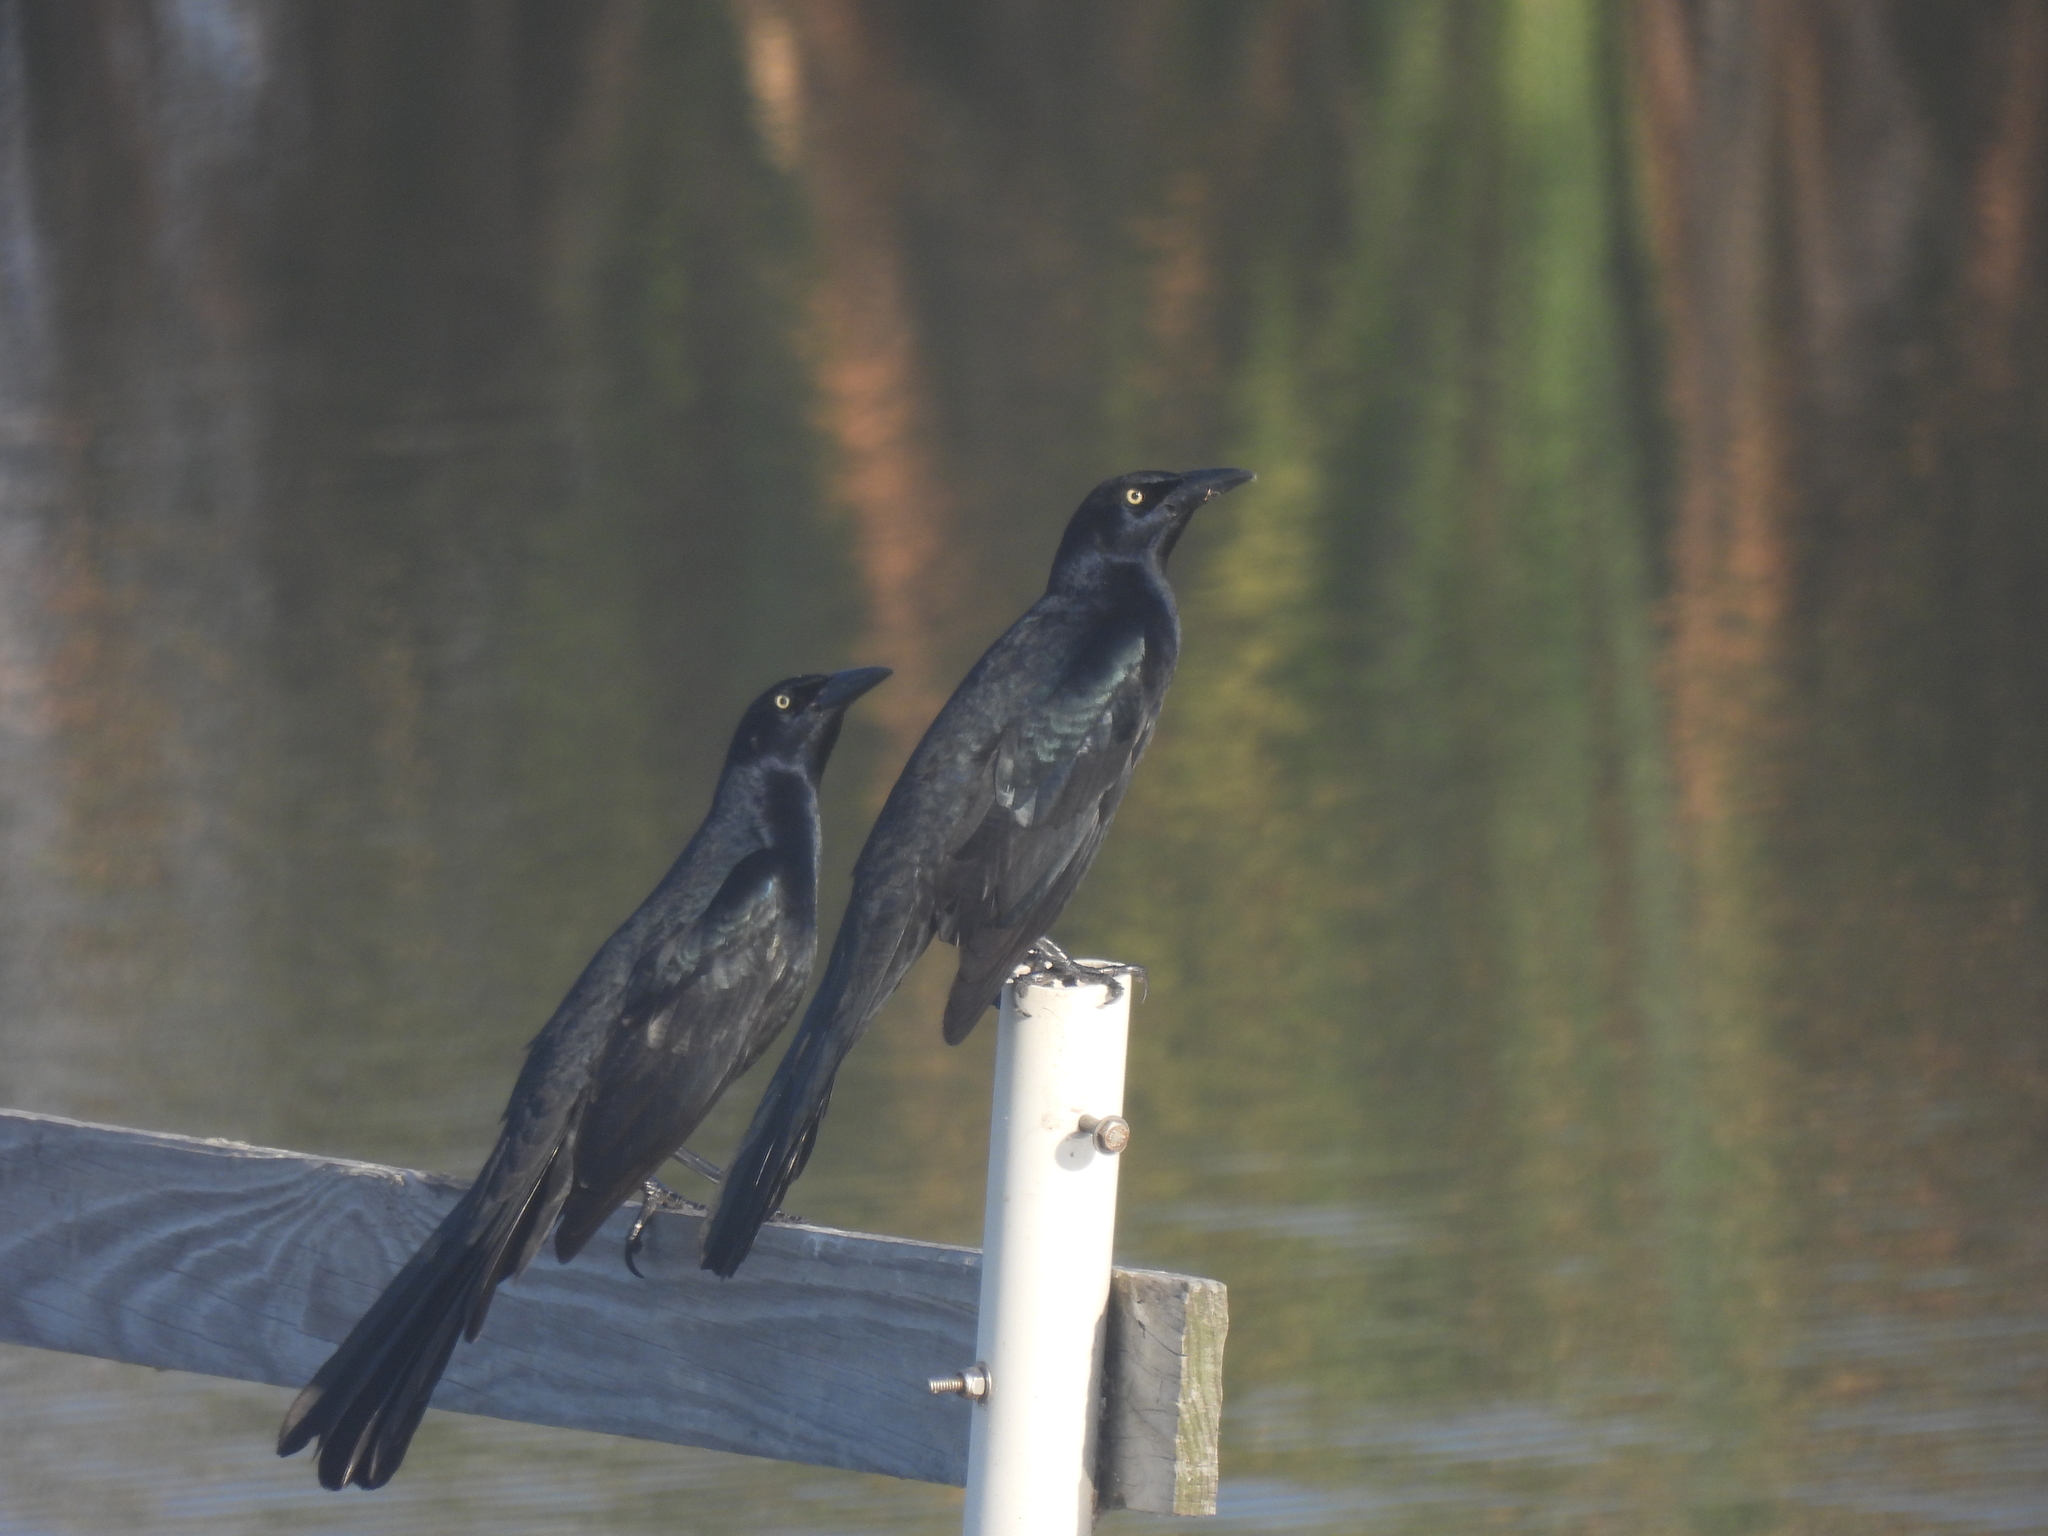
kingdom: Animalia
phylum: Chordata
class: Aves
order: Passeriformes
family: Icteridae
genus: Quiscalus
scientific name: Quiscalus mexicanus
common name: Great-tailed grackle
